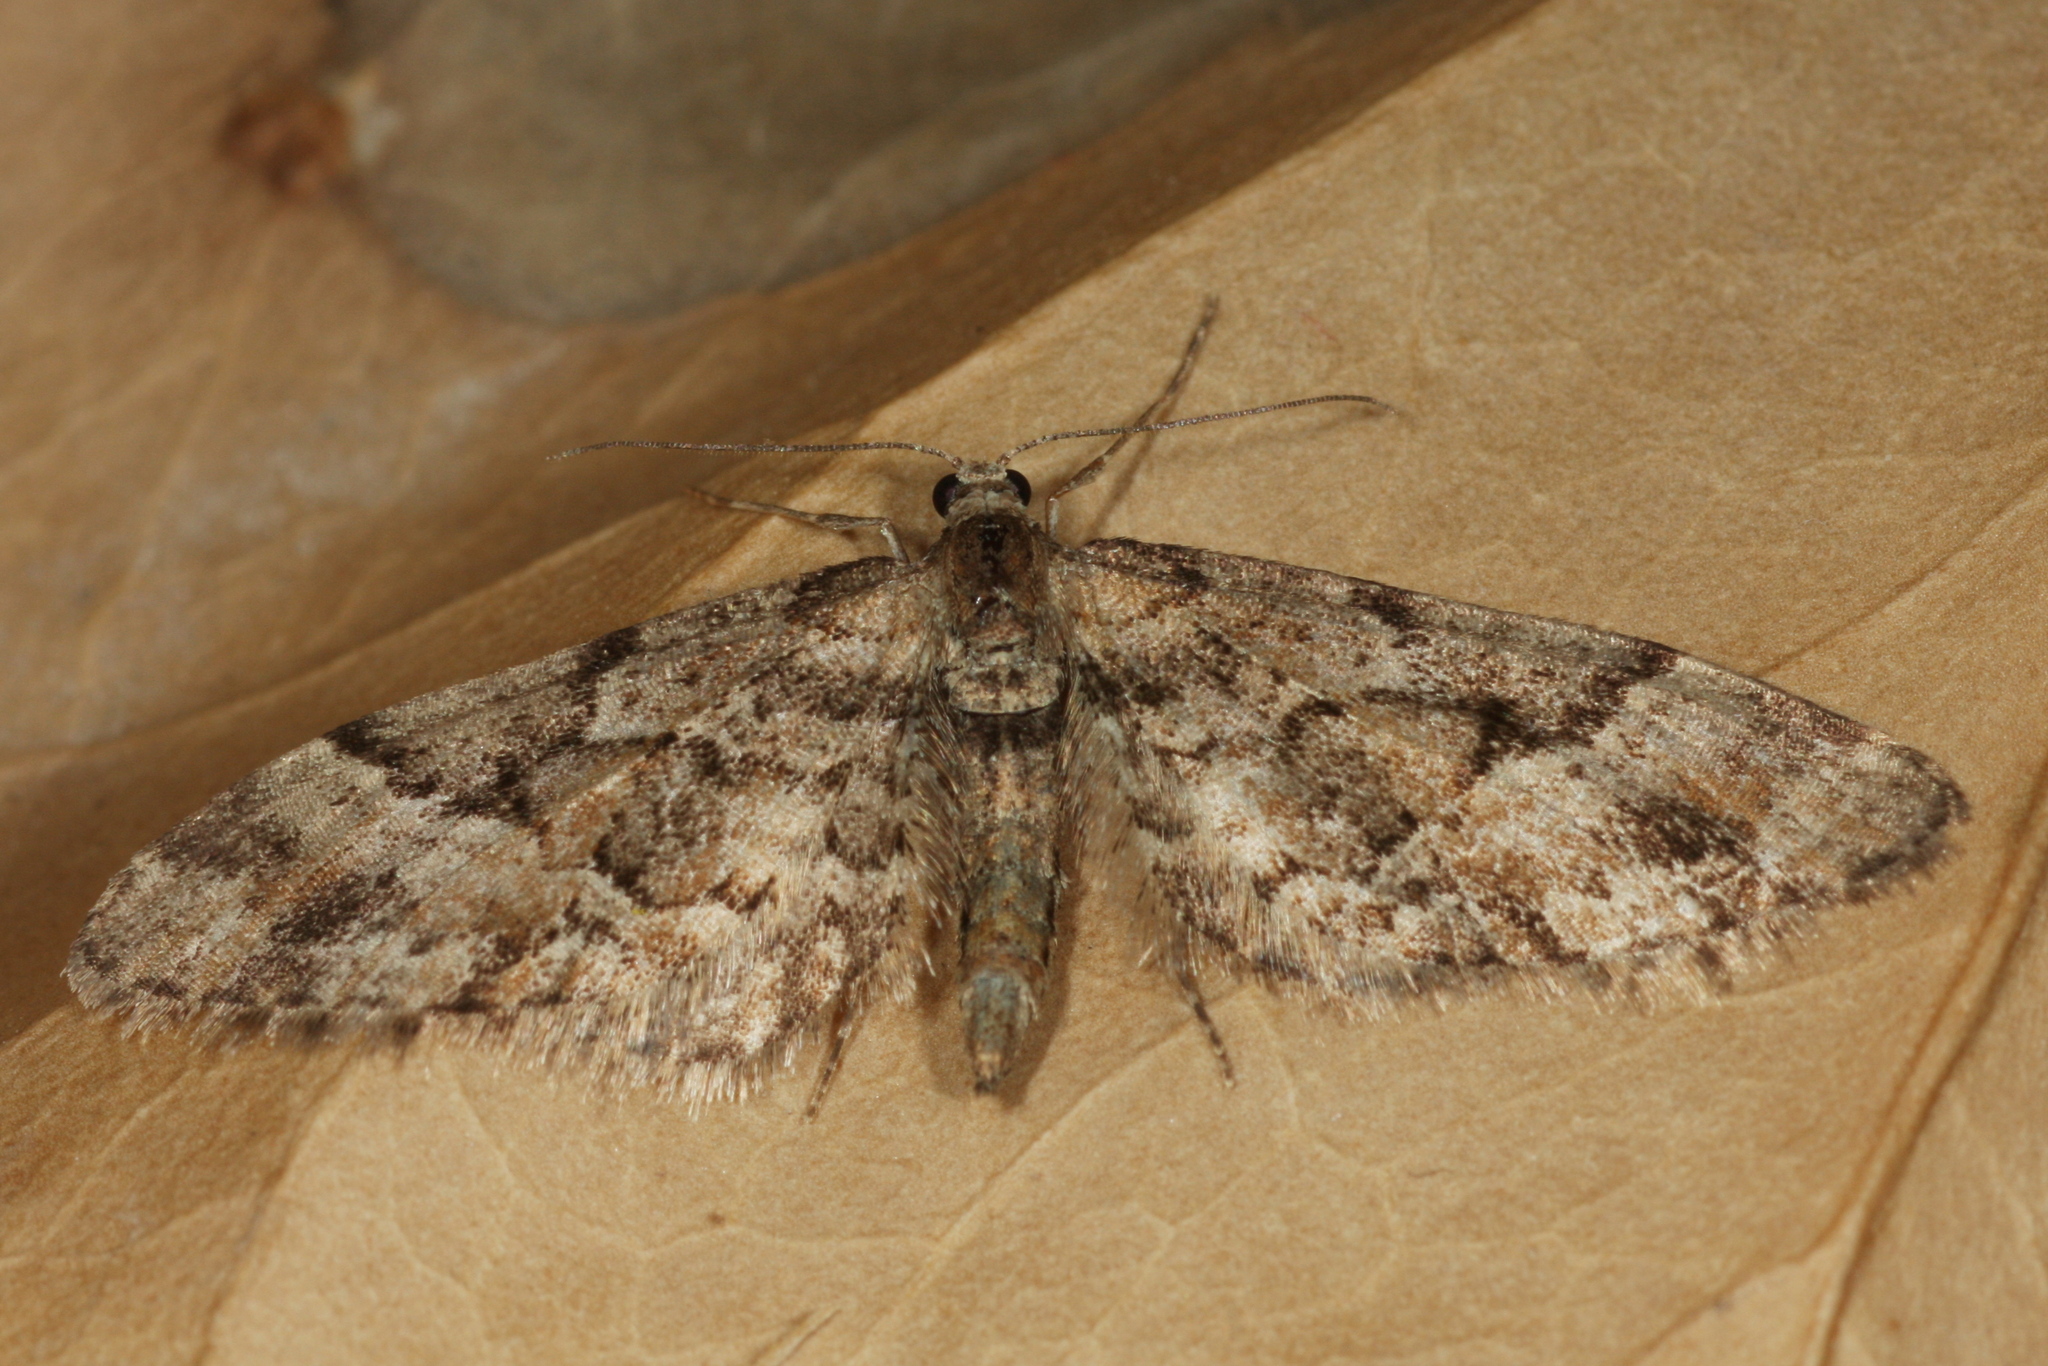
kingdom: Animalia
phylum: Arthropoda
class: Insecta
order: Lepidoptera
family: Geometridae
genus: Eupithecia
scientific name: Eupithecia lanceata
